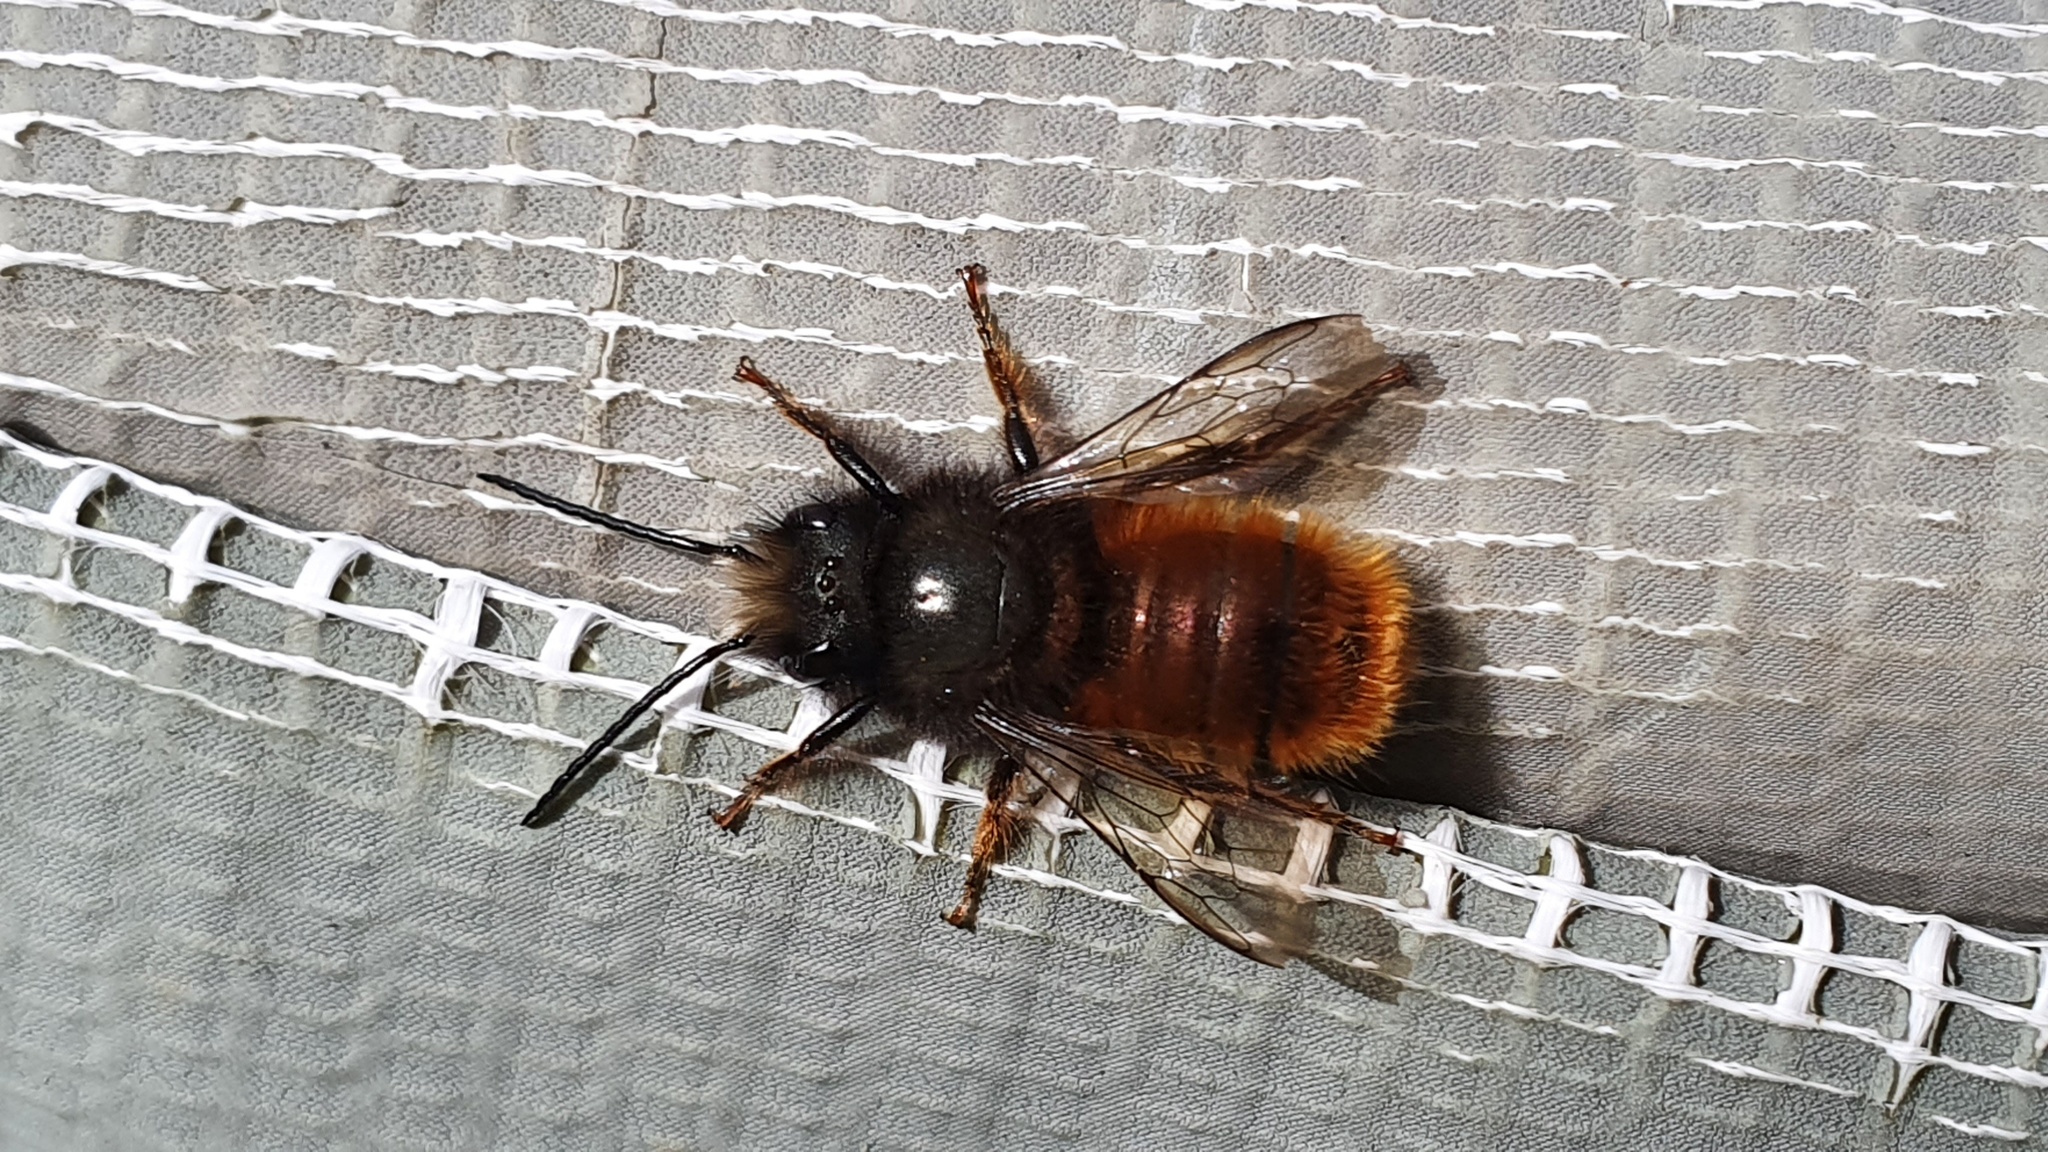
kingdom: Animalia
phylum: Arthropoda
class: Insecta
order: Hymenoptera
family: Megachilidae
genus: Osmia
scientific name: Osmia cornuta
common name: Mason bee
